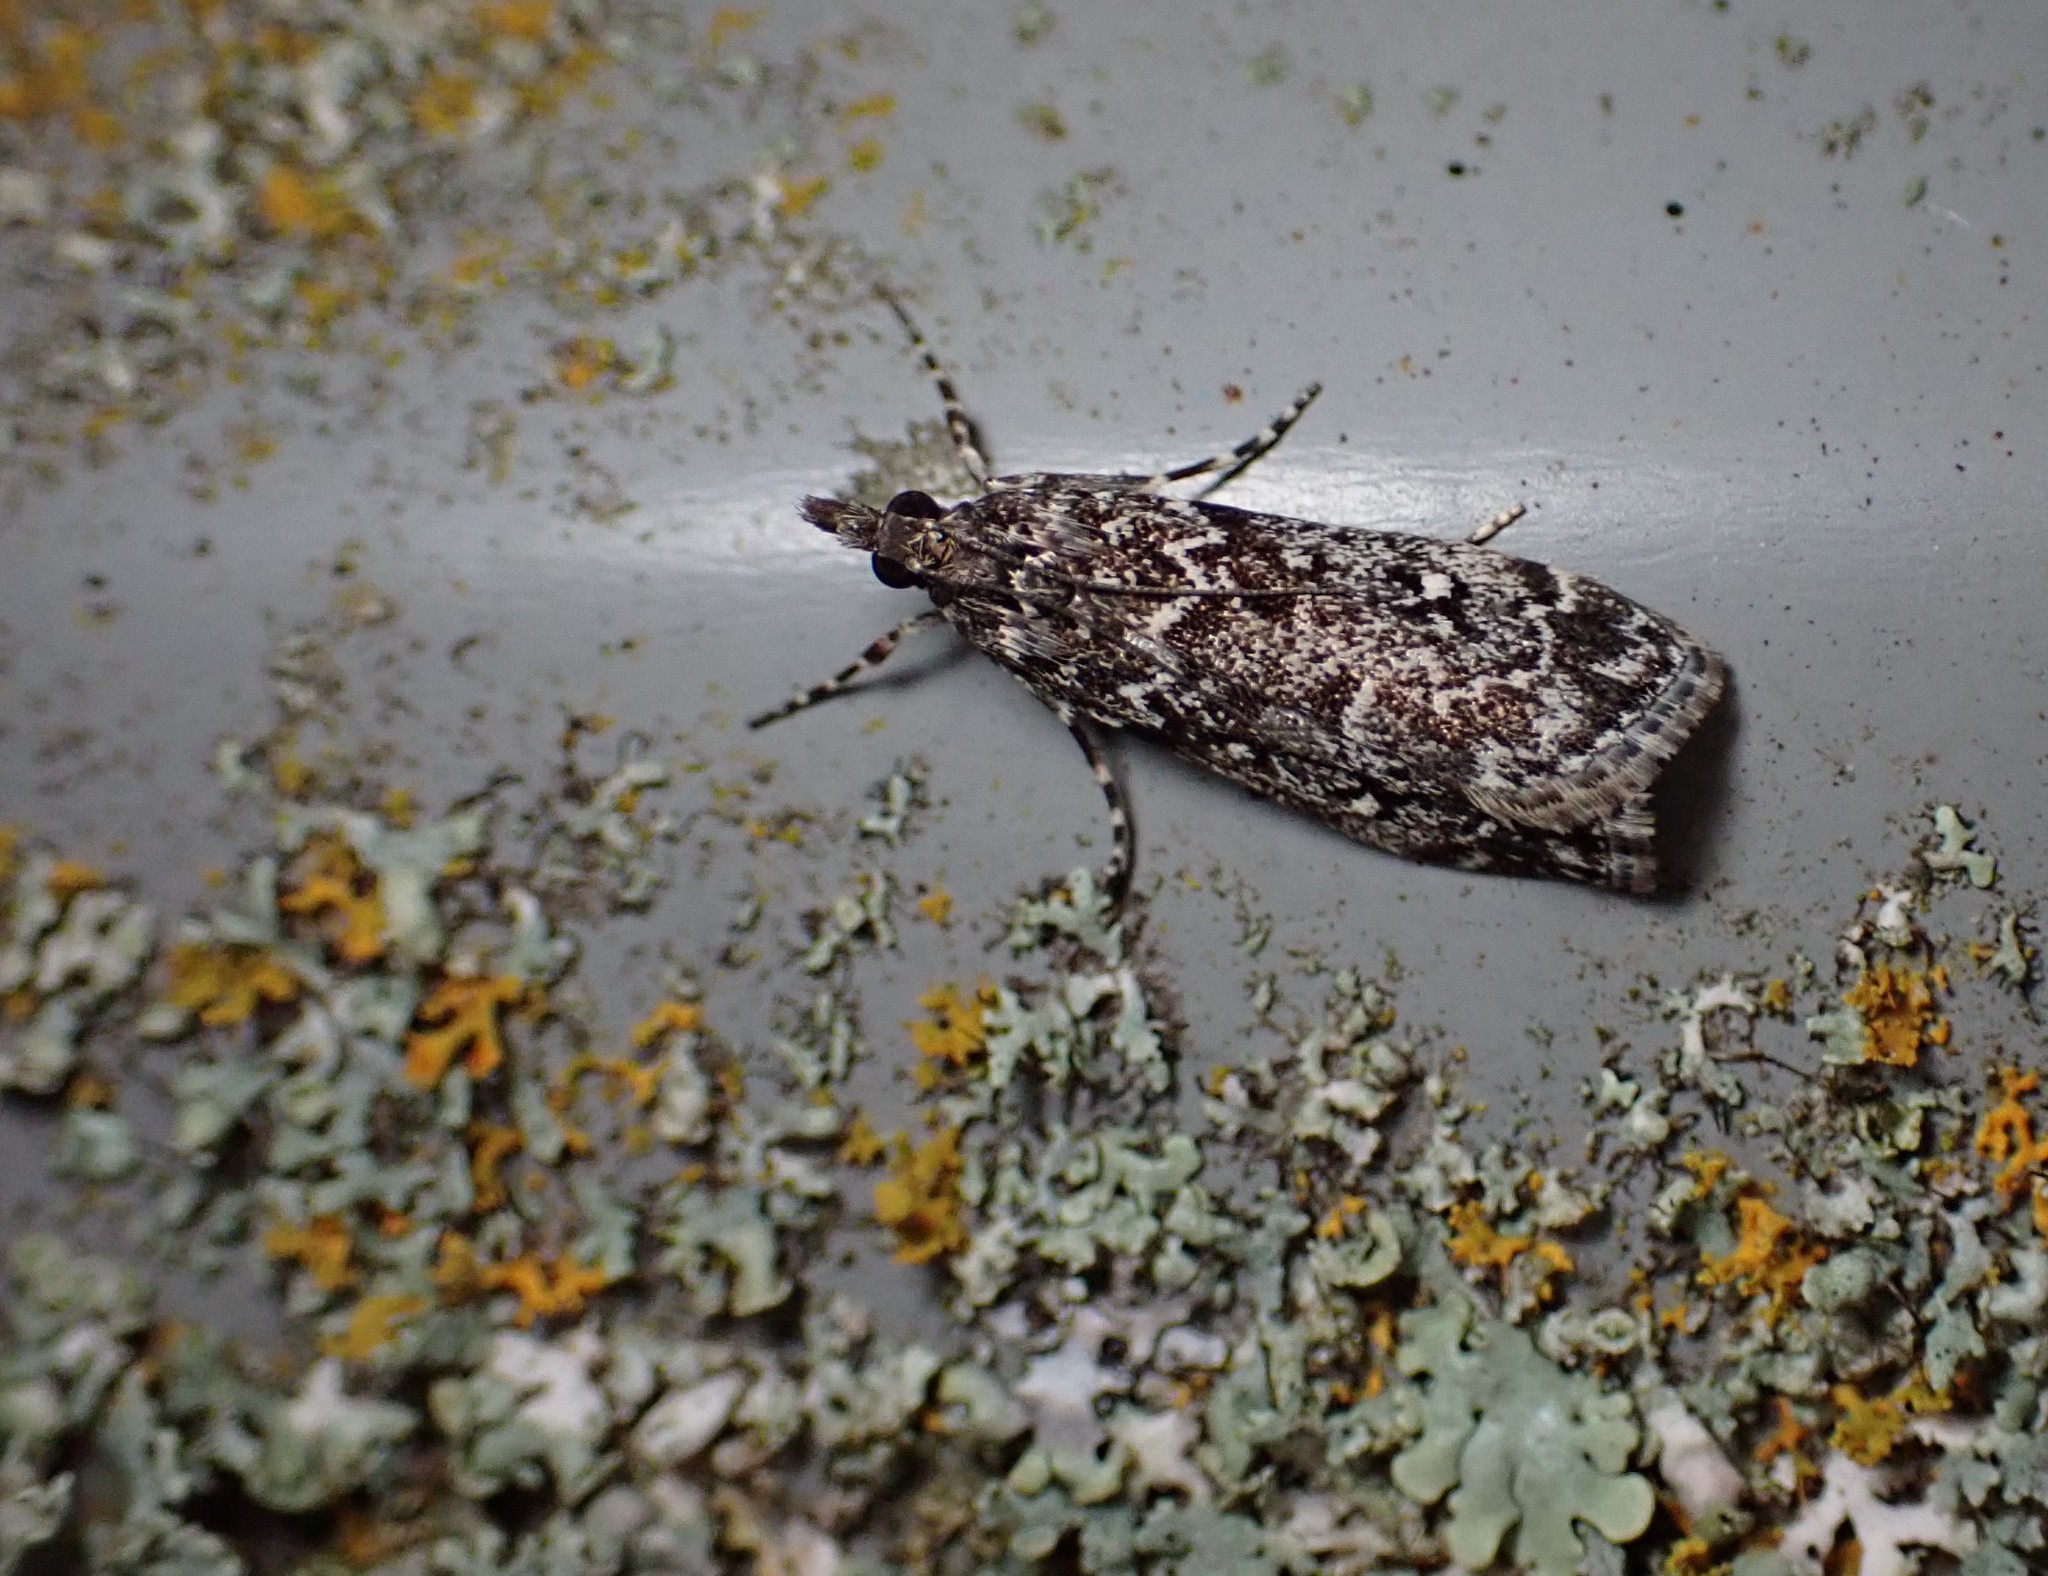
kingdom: Animalia
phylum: Arthropoda
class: Insecta
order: Lepidoptera
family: Crambidae
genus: Eudonia
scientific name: Eudonia philerga
